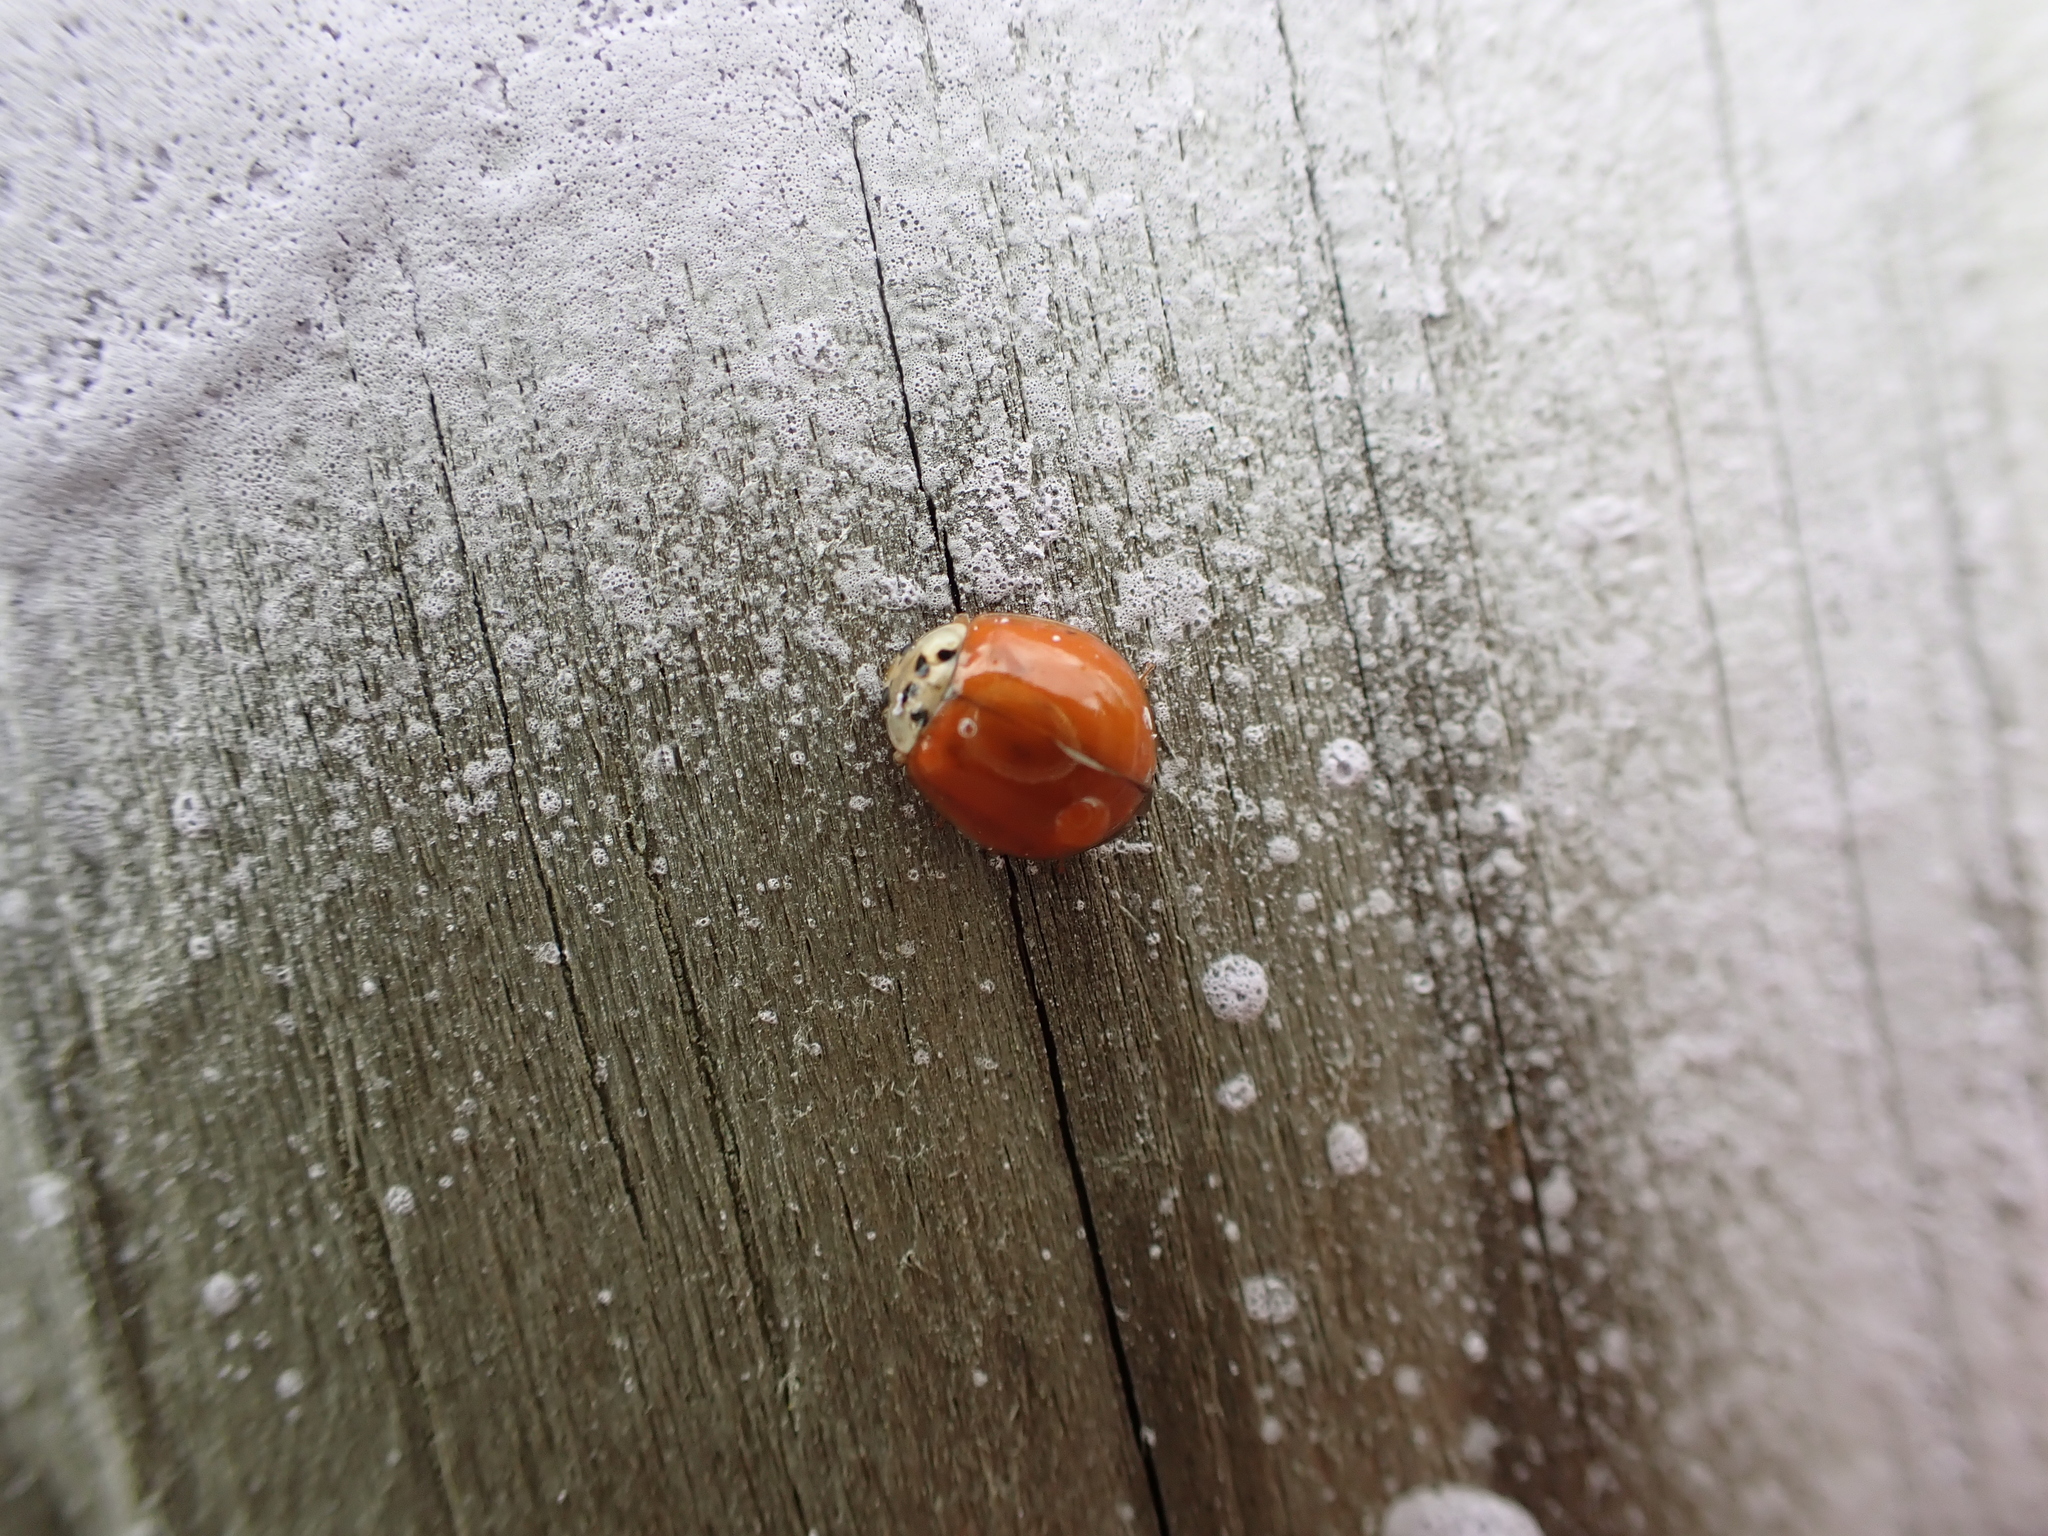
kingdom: Animalia
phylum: Arthropoda
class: Insecta
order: Coleoptera
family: Coccinellidae
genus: Harmonia
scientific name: Harmonia axyridis
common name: Harlequin ladybird
